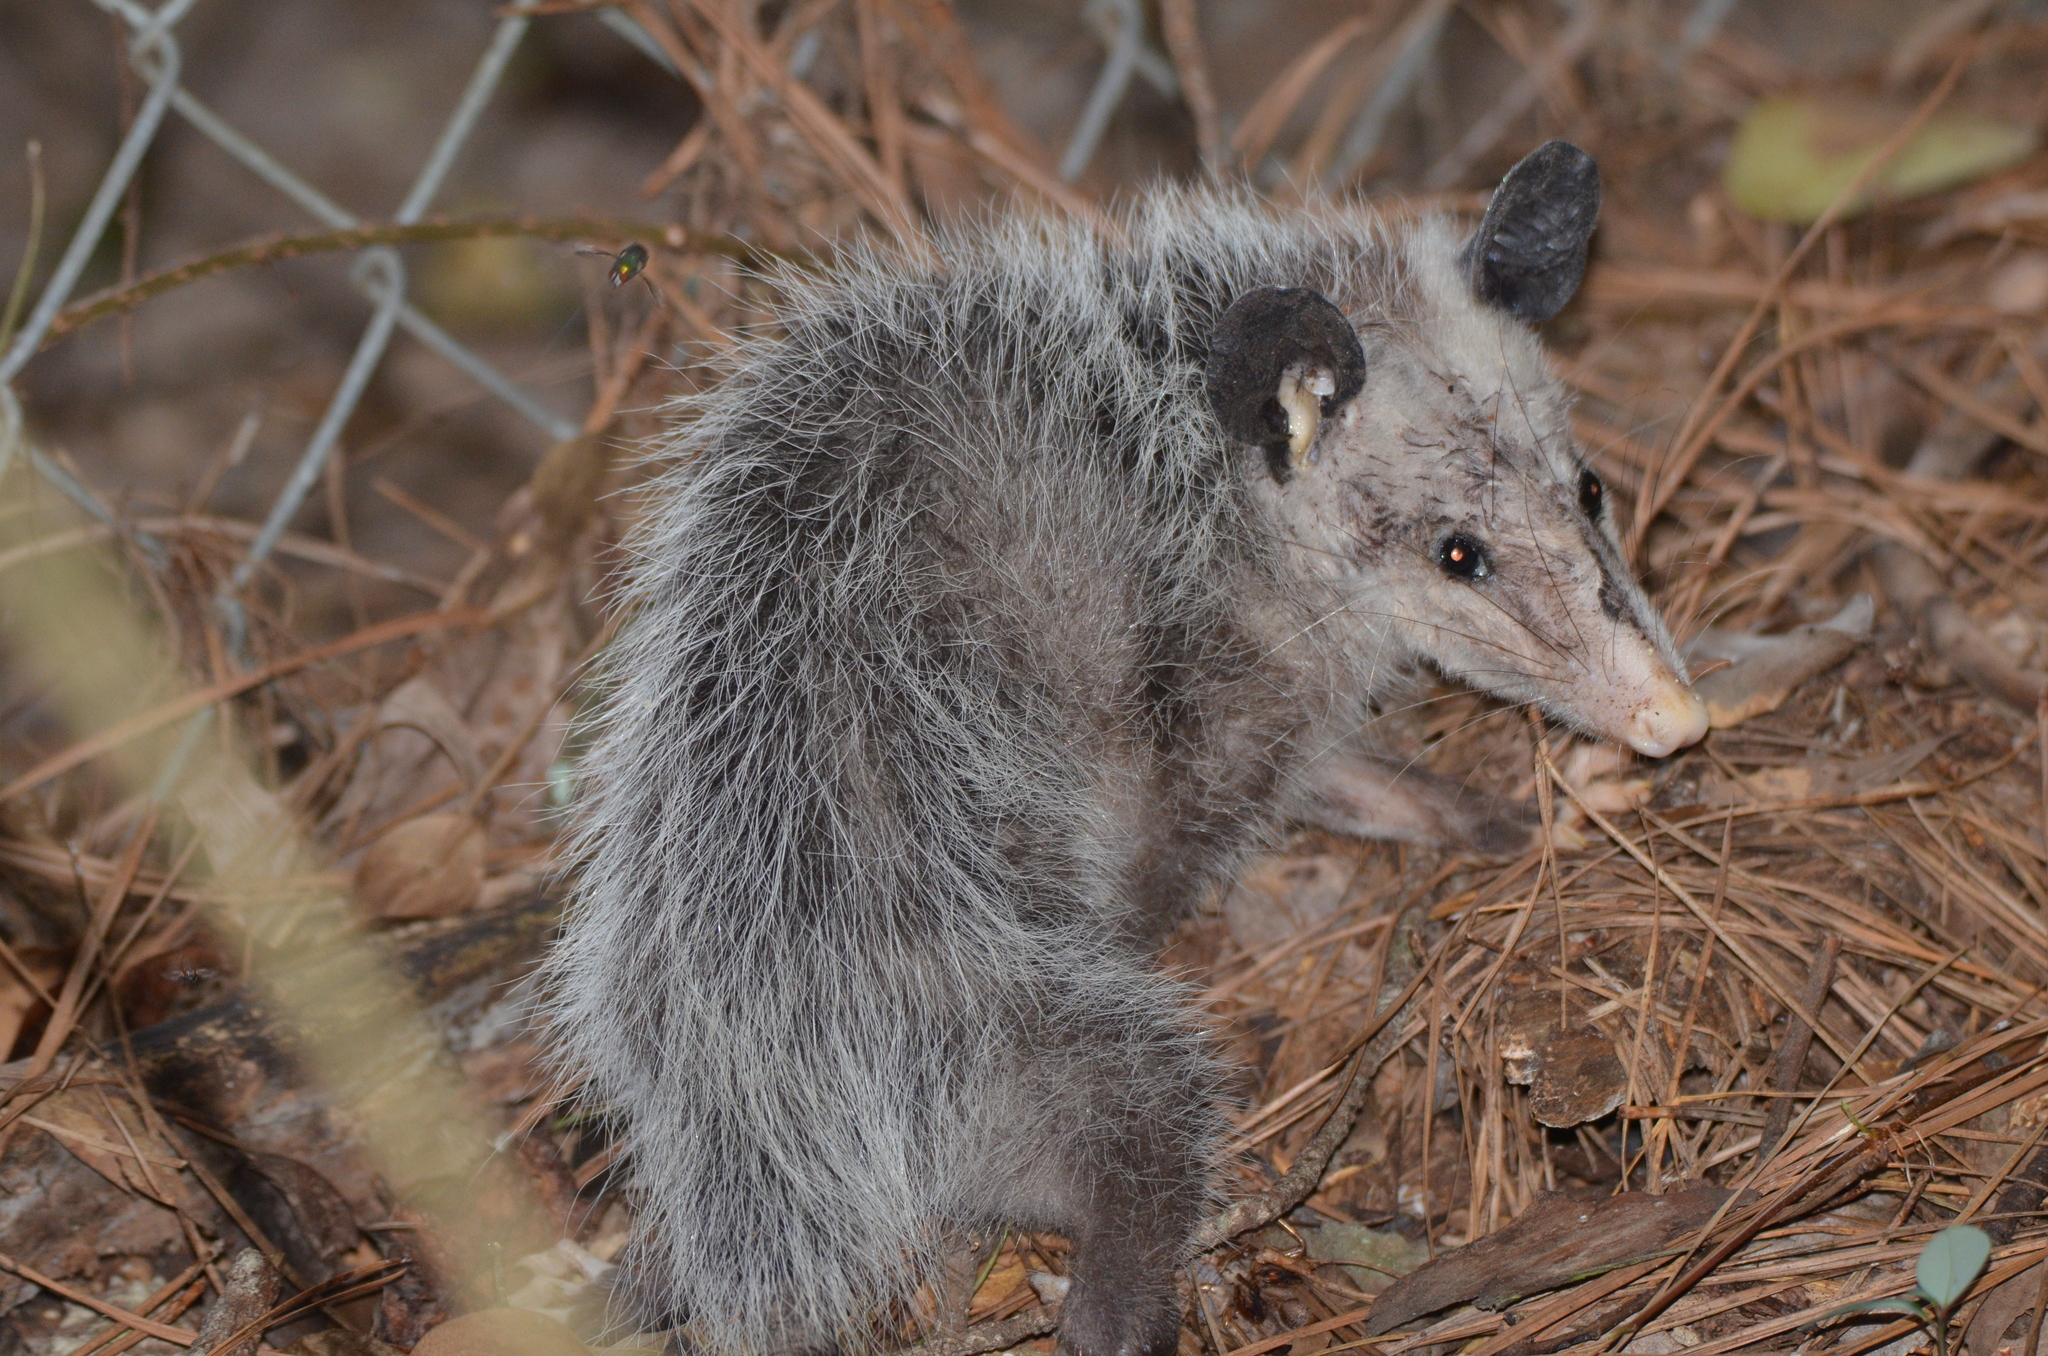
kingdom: Animalia
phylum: Chordata
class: Mammalia
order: Didelphimorphia
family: Didelphidae
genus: Didelphis
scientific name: Didelphis virginiana
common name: Virginia opossum
